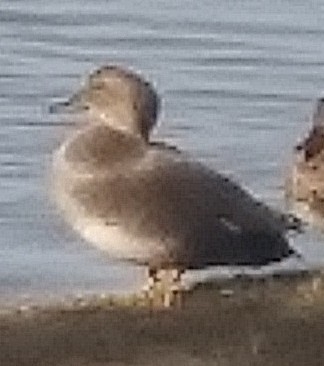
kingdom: Animalia
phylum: Chordata
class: Aves
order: Anseriformes
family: Anatidae
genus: Mareca
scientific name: Mareca strepera
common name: Gadwall
